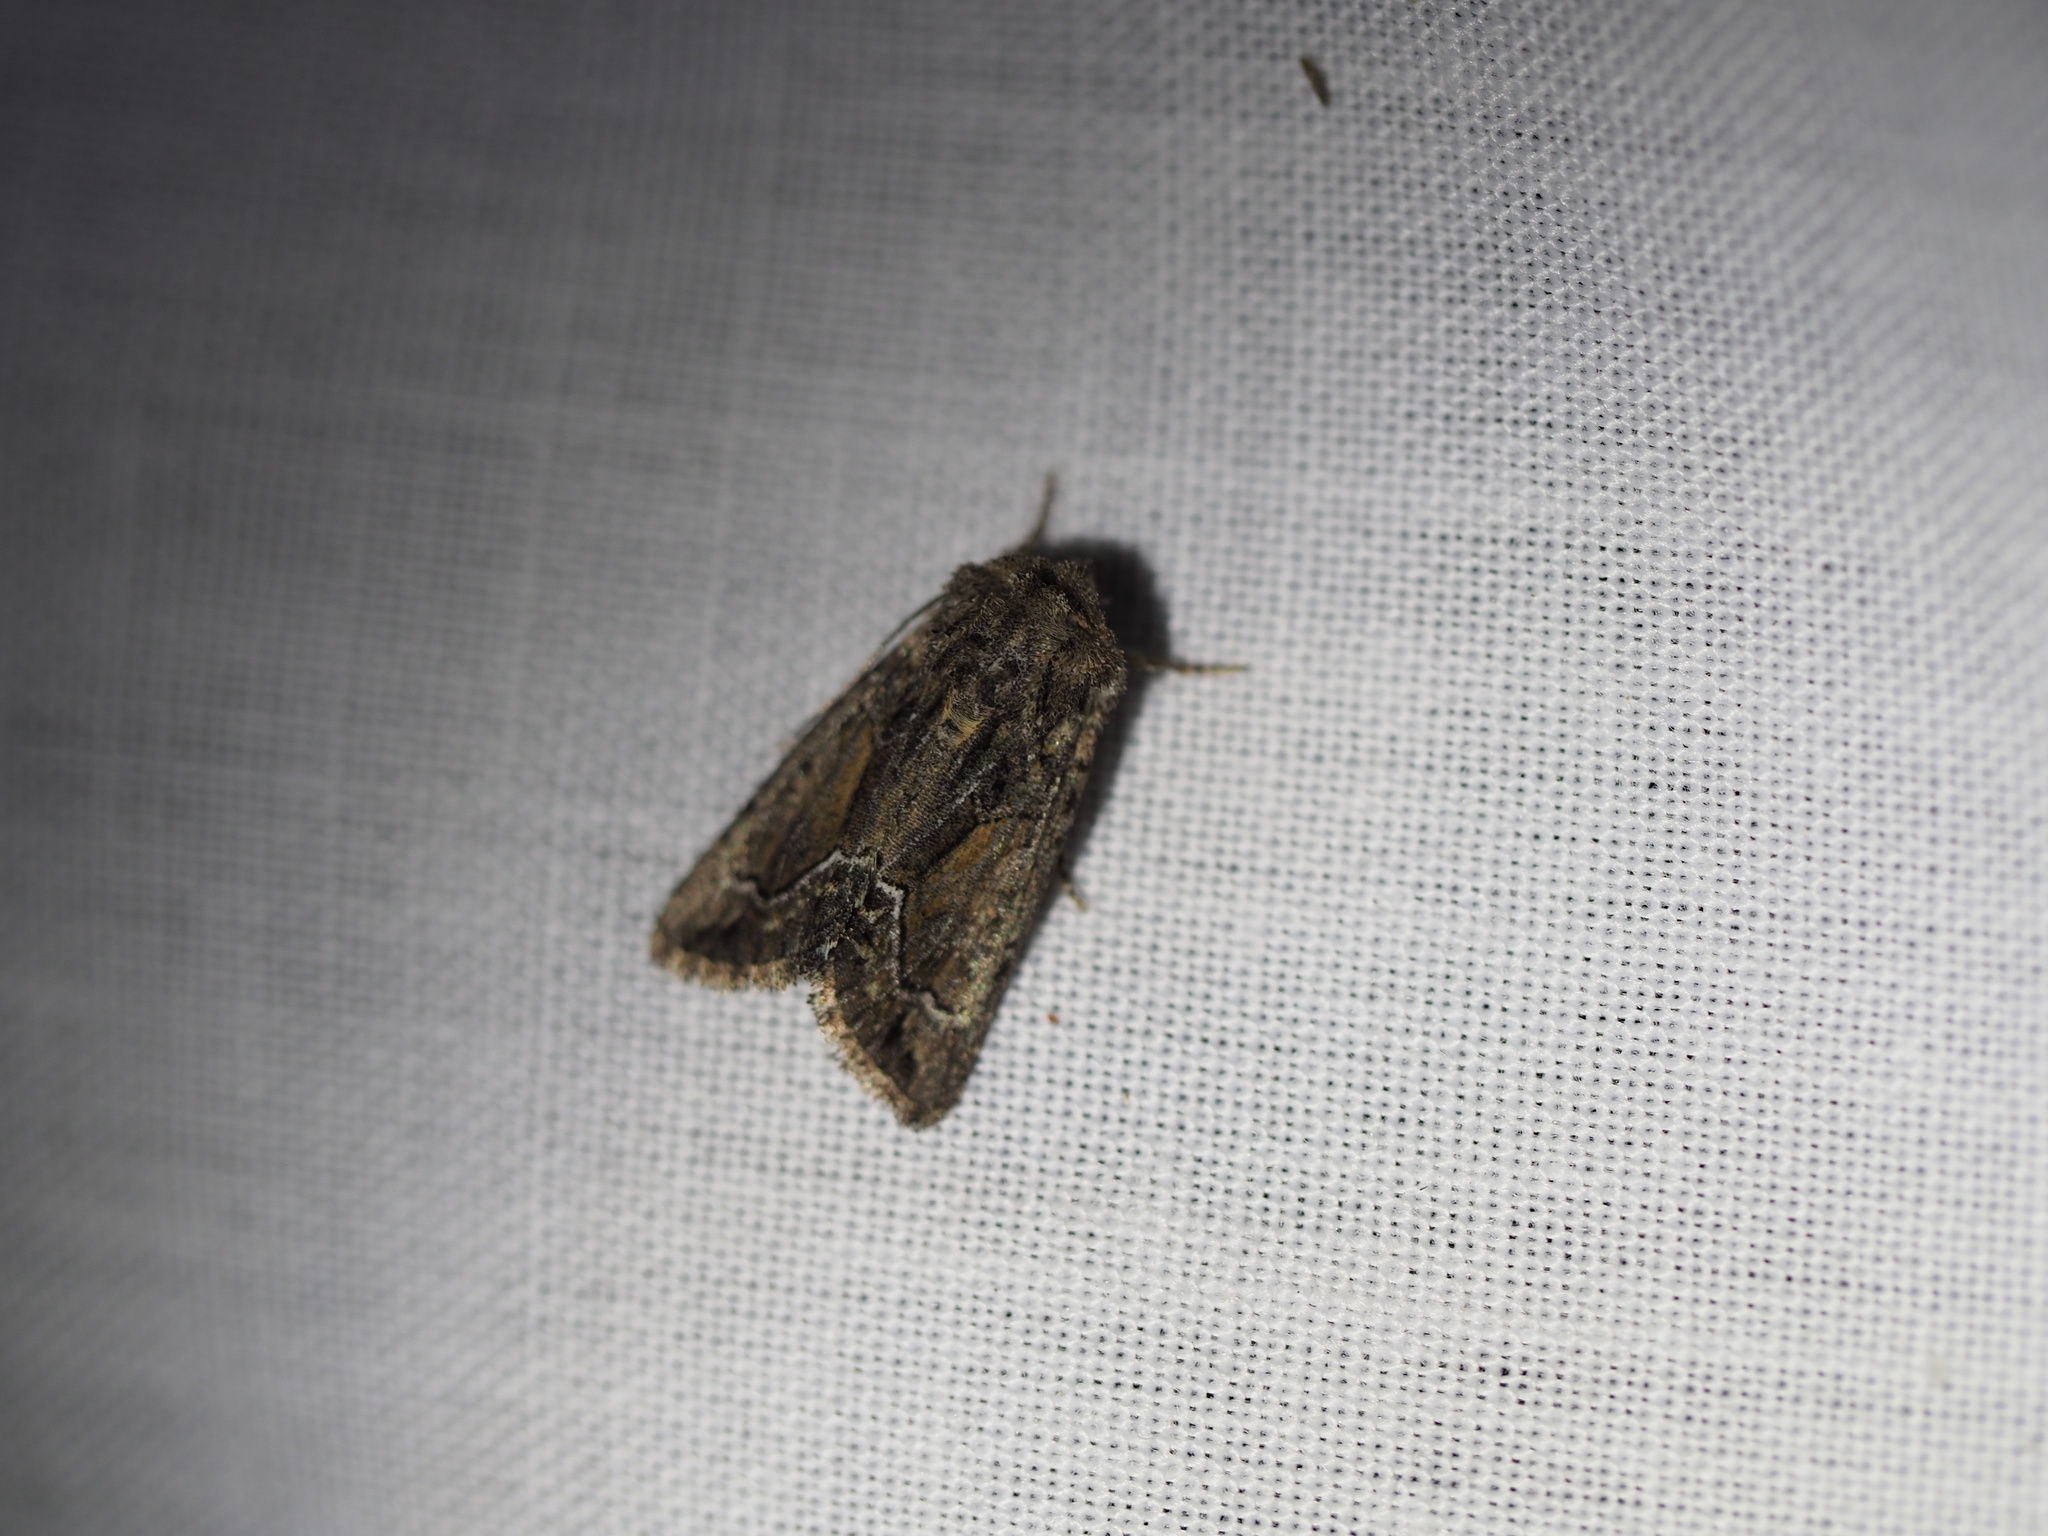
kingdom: Animalia
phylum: Arthropoda
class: Insecta
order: Lepidoptera
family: Noctuidae
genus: Pseudanarta
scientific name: Pseudanarta flava
